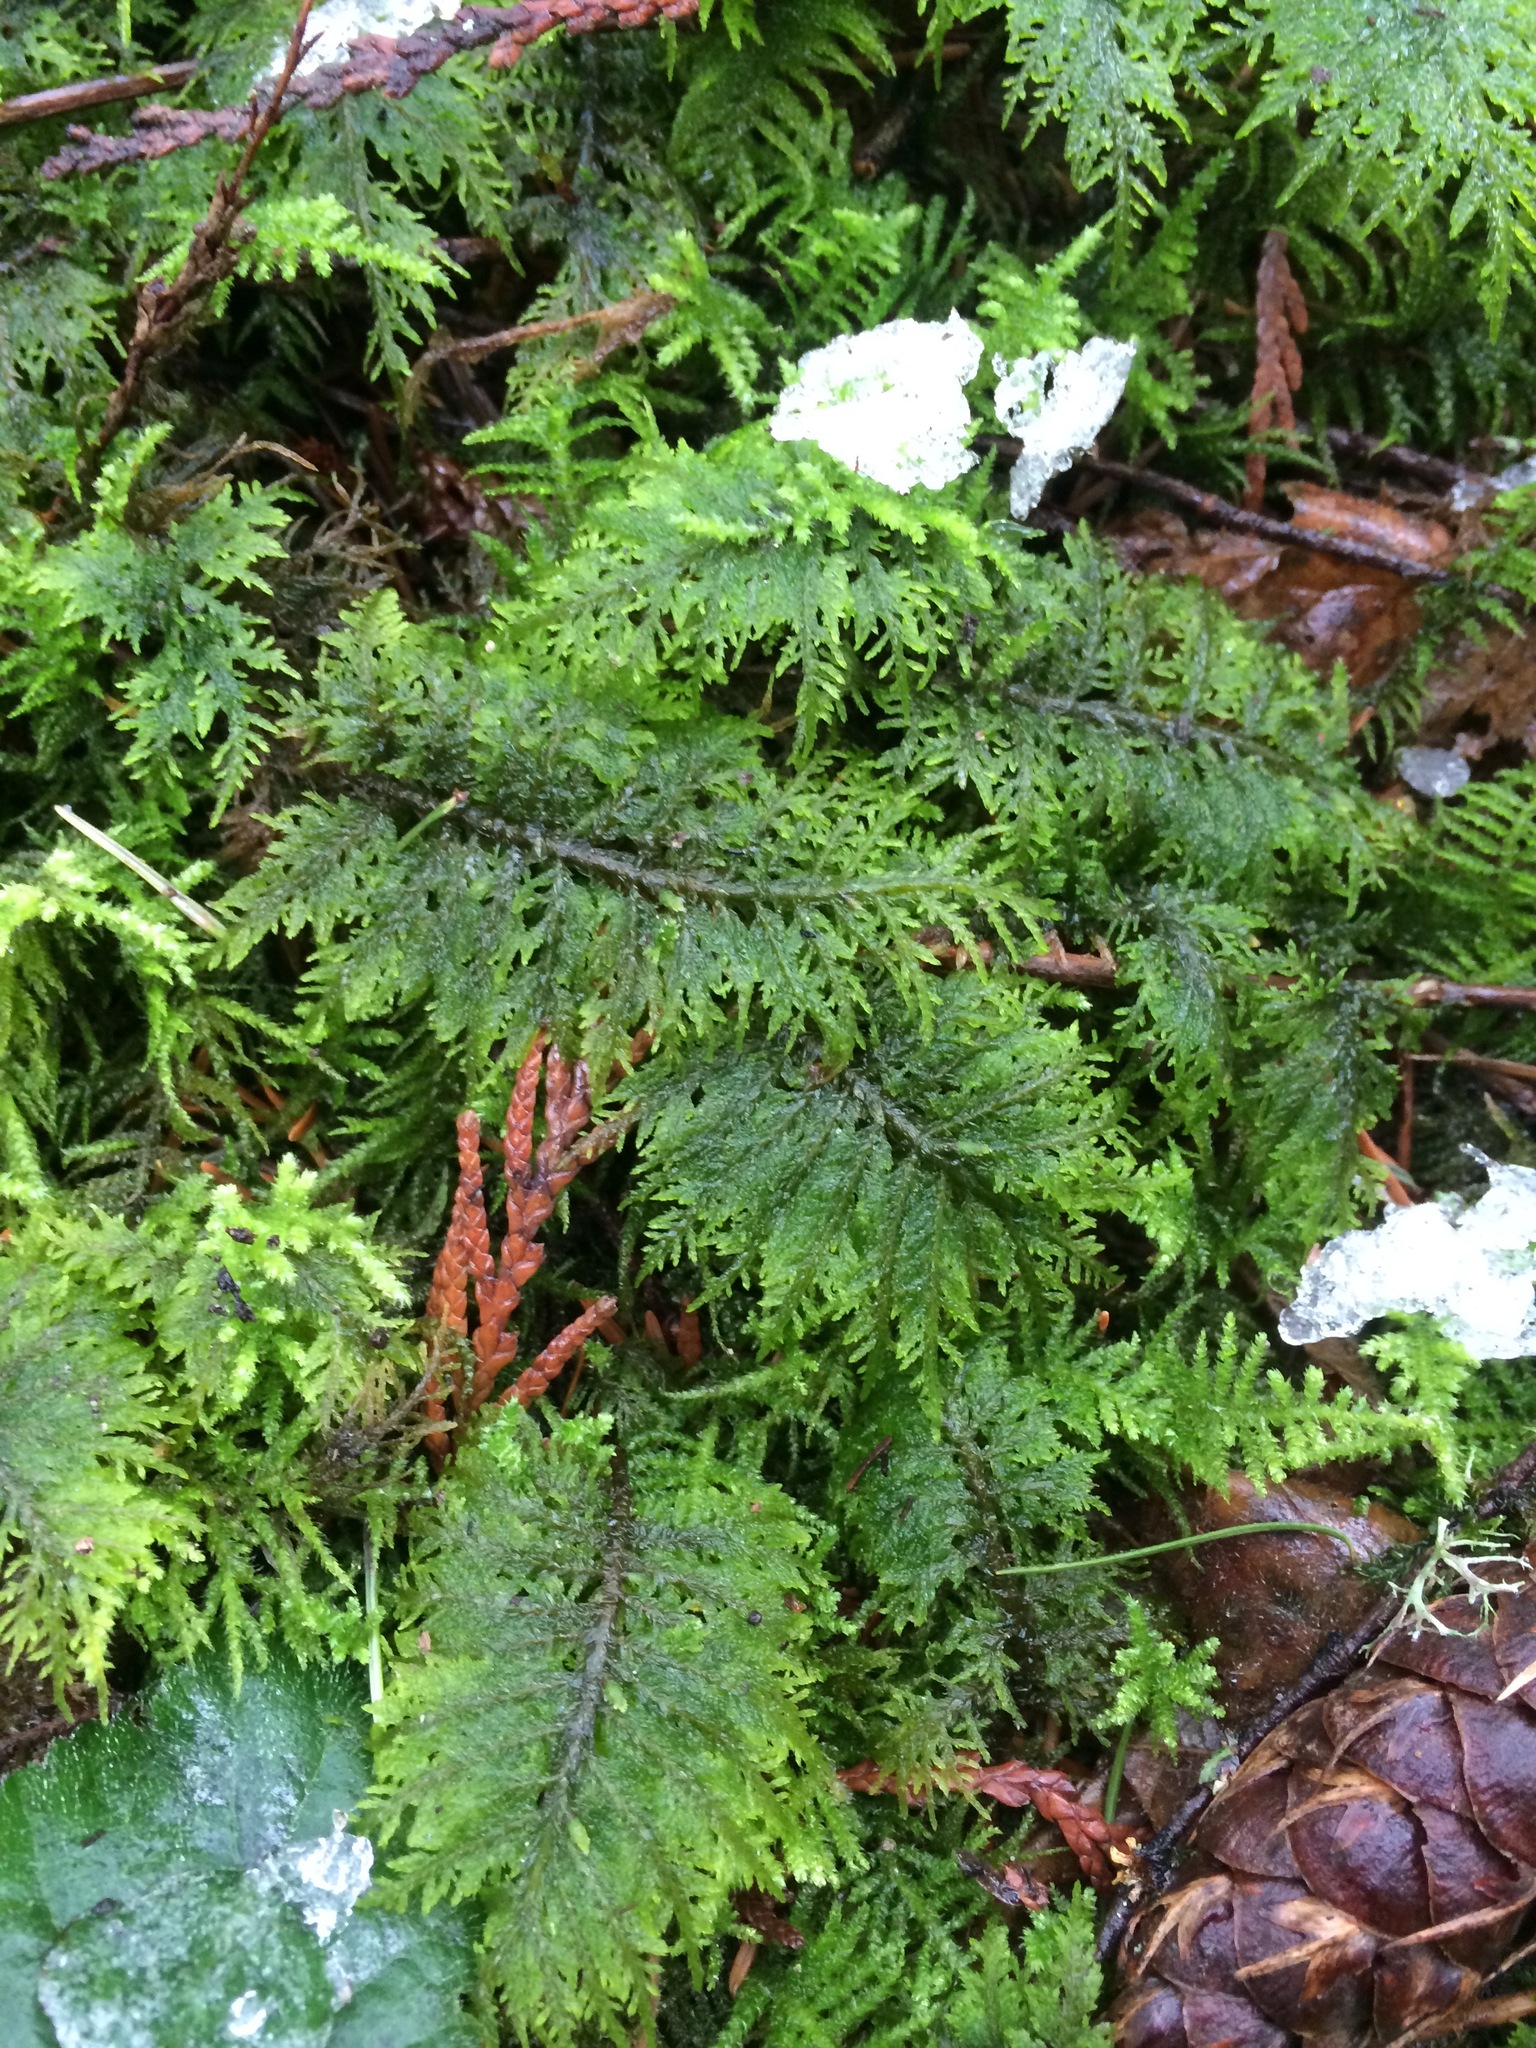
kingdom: Plantae
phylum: Bryophyta
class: Bryopsida
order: Hypnales
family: Hylocomiaceae
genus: Hylocomium
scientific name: Hylocomium splendens
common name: Stairstep moss
